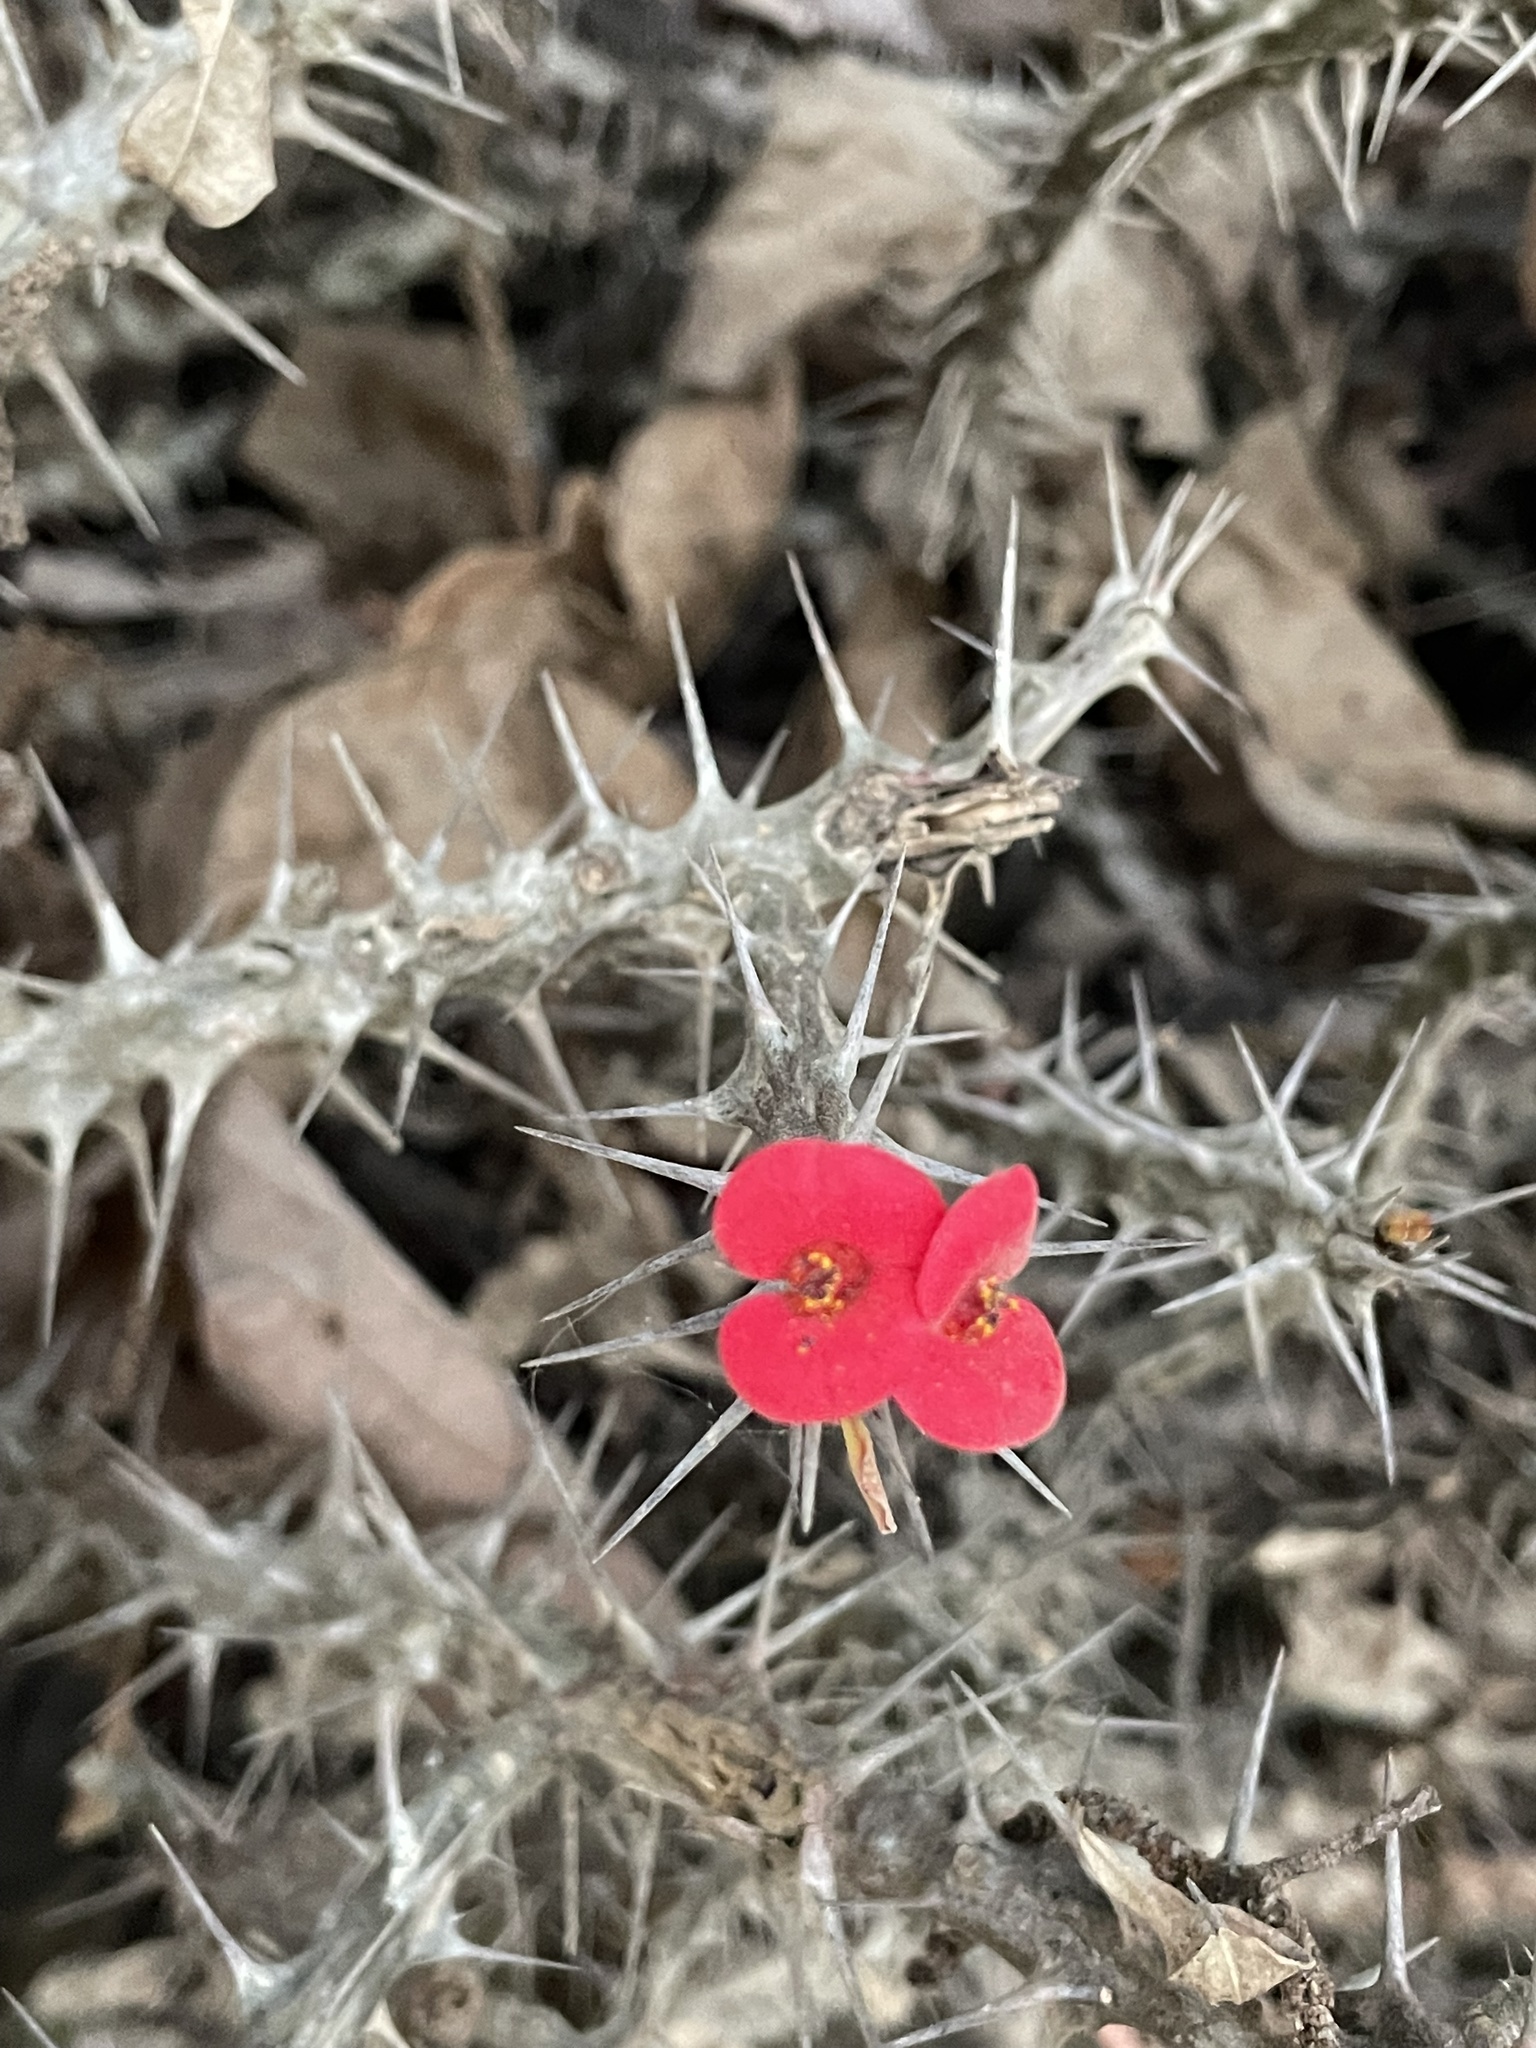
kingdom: Plantae
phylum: Tracheophyta
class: Magnoliopsida
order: Malpighiales
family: Euphorbiaceae
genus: Euphorbia
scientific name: Euphorbia milii
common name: Christplant
